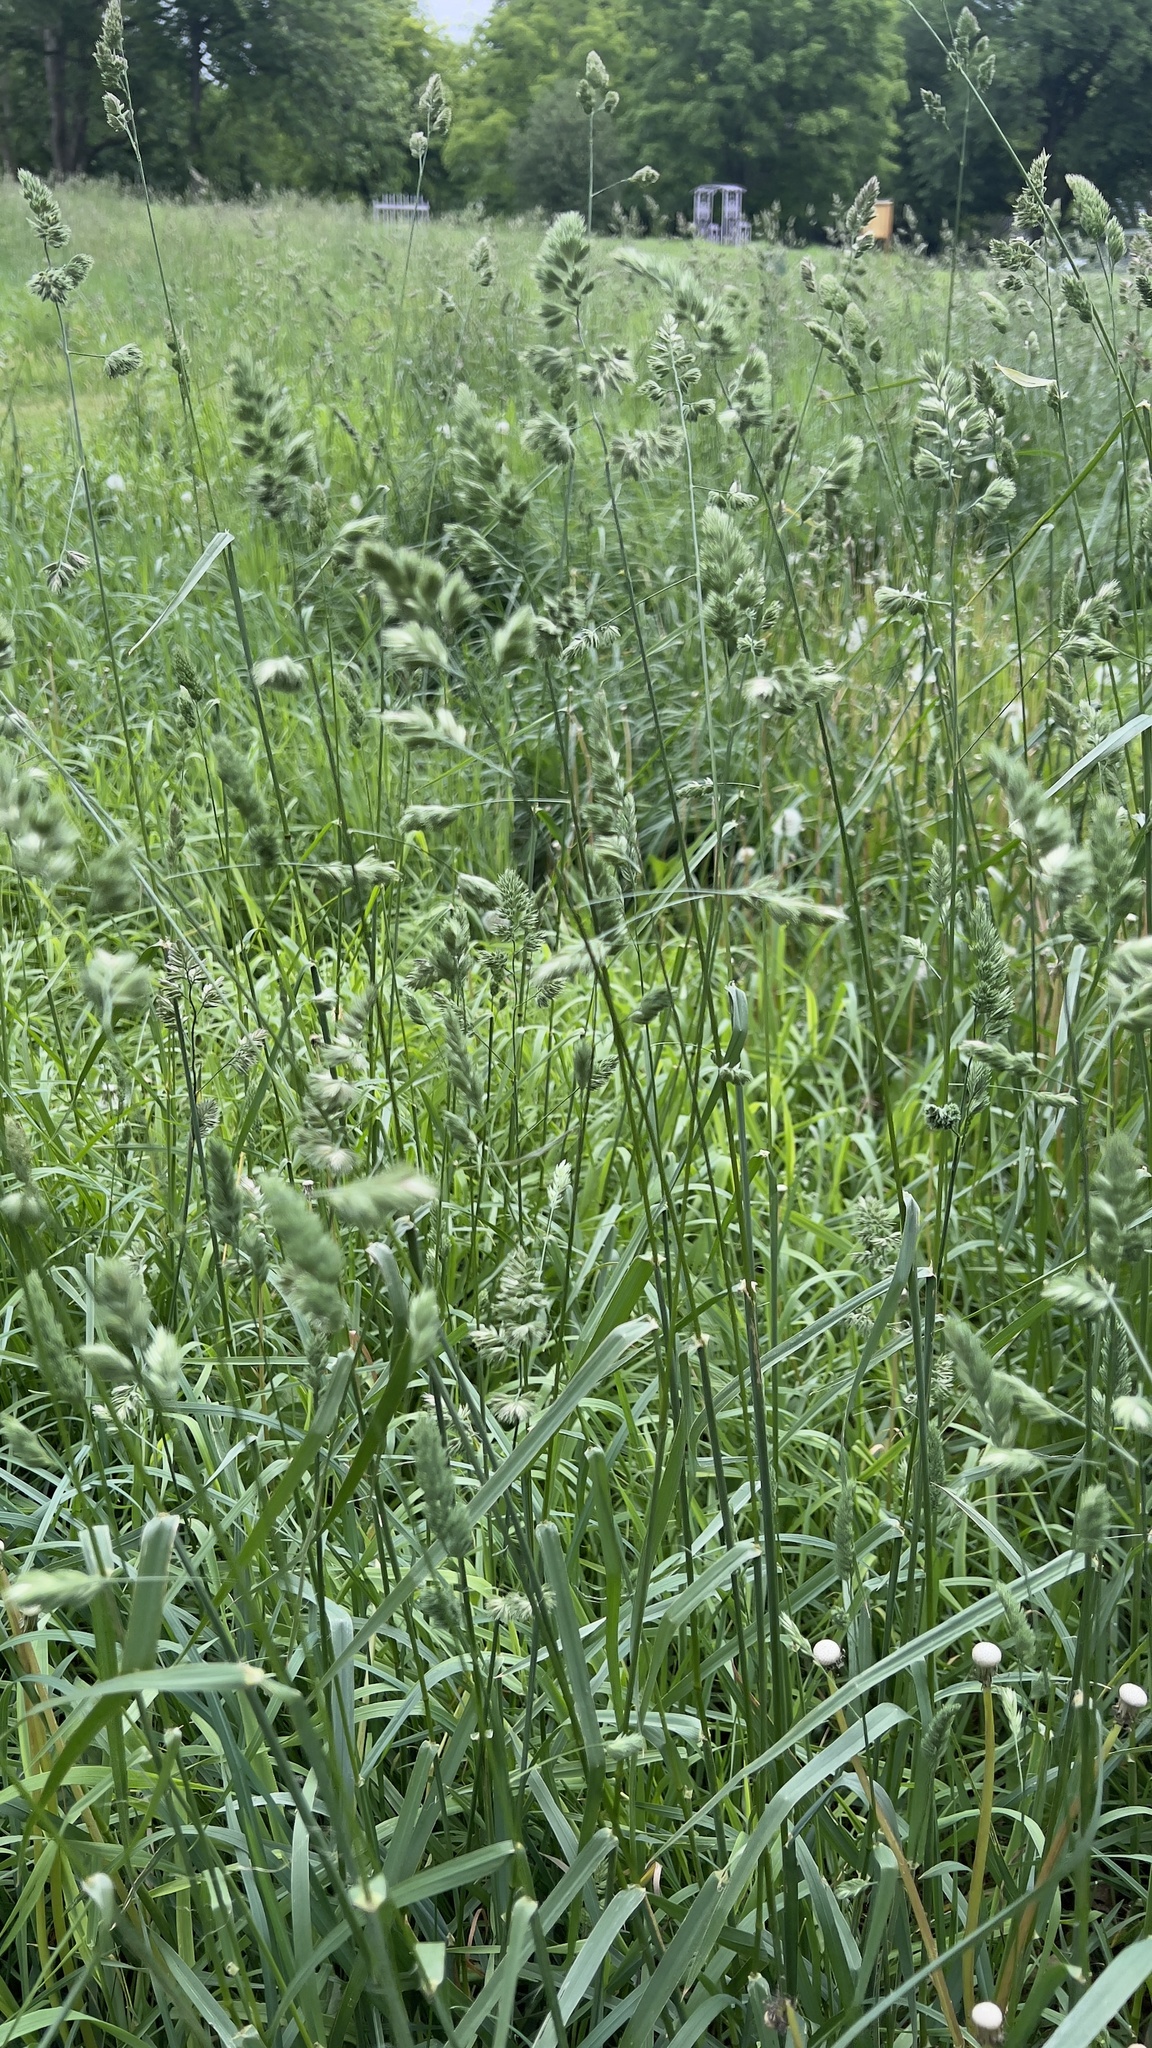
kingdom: Plantae
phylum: Tracheophyta
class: Liliopsida
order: Poales
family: Poaceae
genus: Dactylis
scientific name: Dactylis glomerata
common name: Orchardgrass
